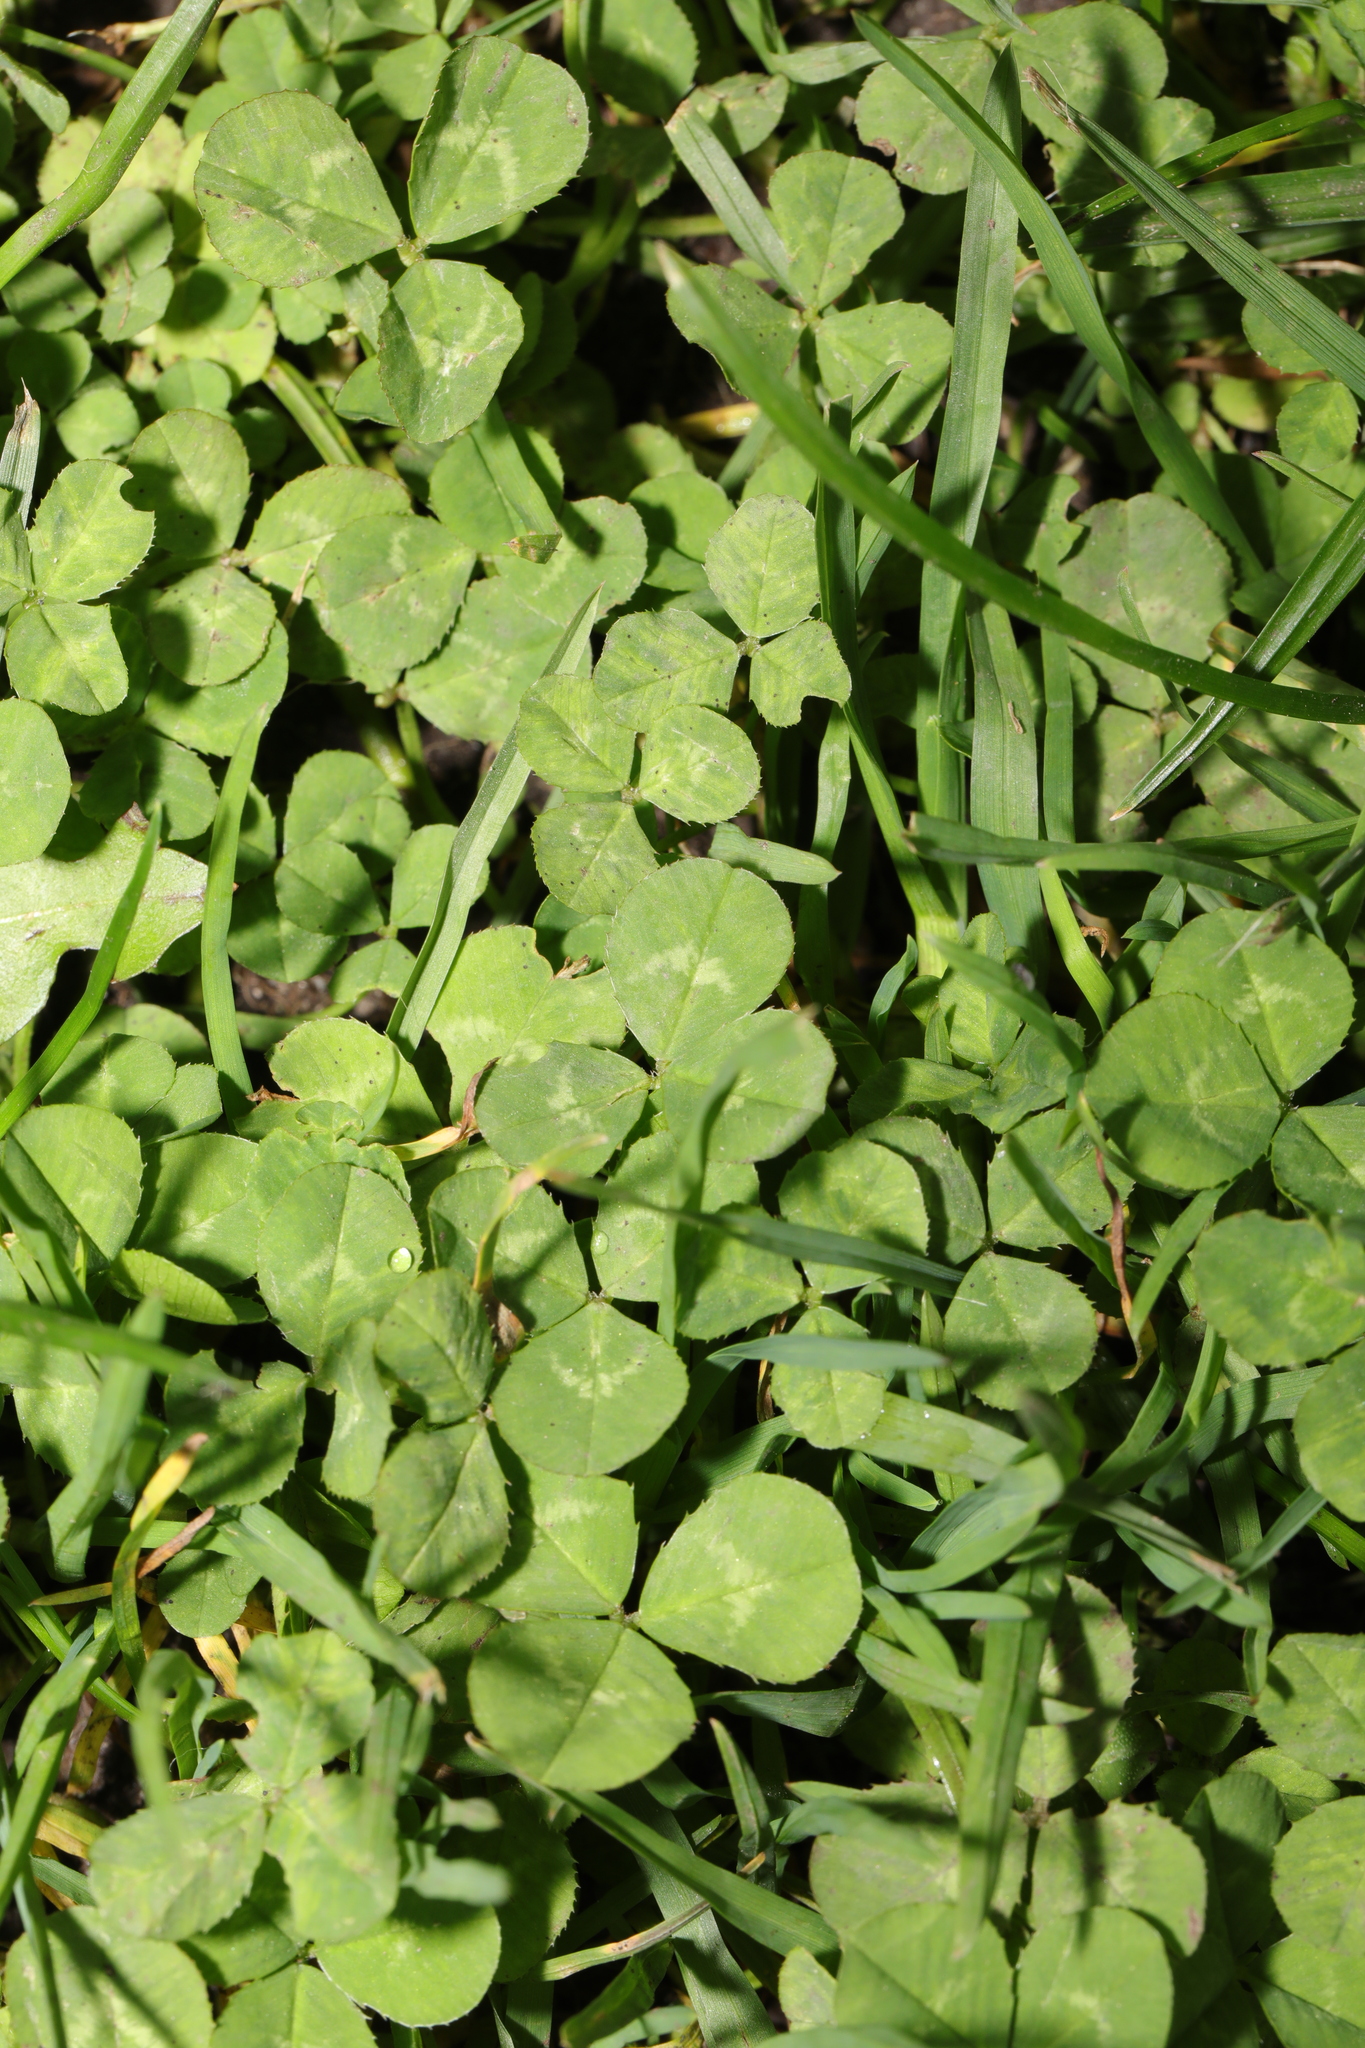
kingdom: Plantae
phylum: Tracheophyta
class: Magnoliopsida
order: Fabales
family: Fabaceae
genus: Trifolium
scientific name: Trifolium repens
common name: White clover
